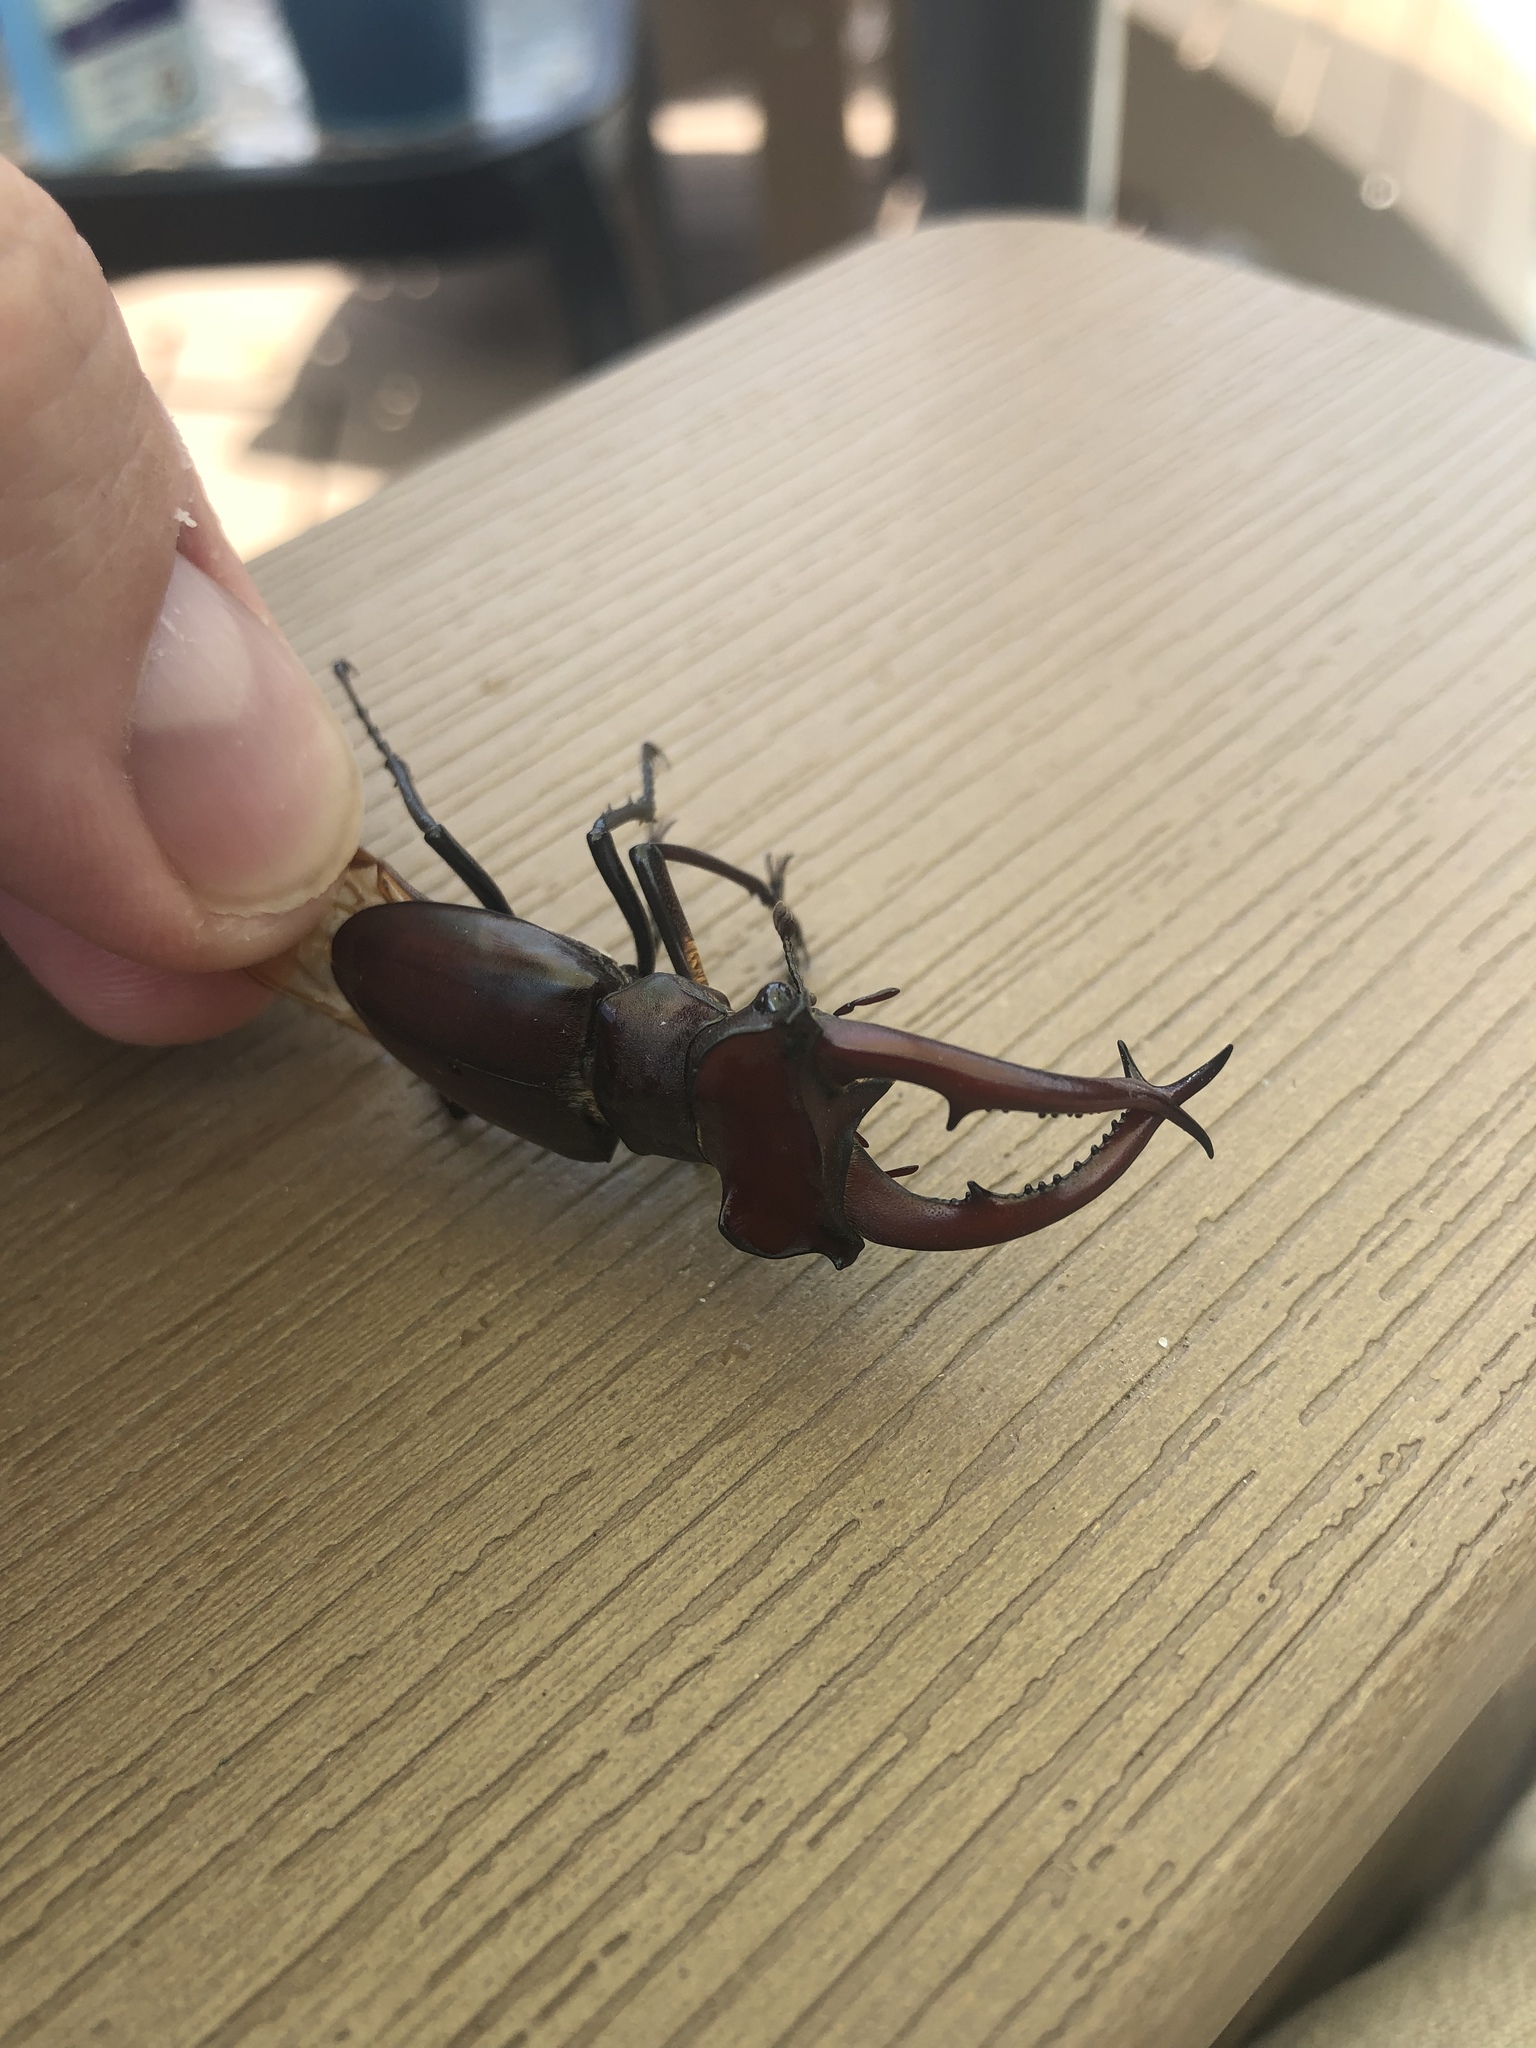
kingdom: Animalia
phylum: Arthropoda
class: Insecta
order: Coleoptera
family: Lucanidae
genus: Lucanus
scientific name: Lucanus elaphus
